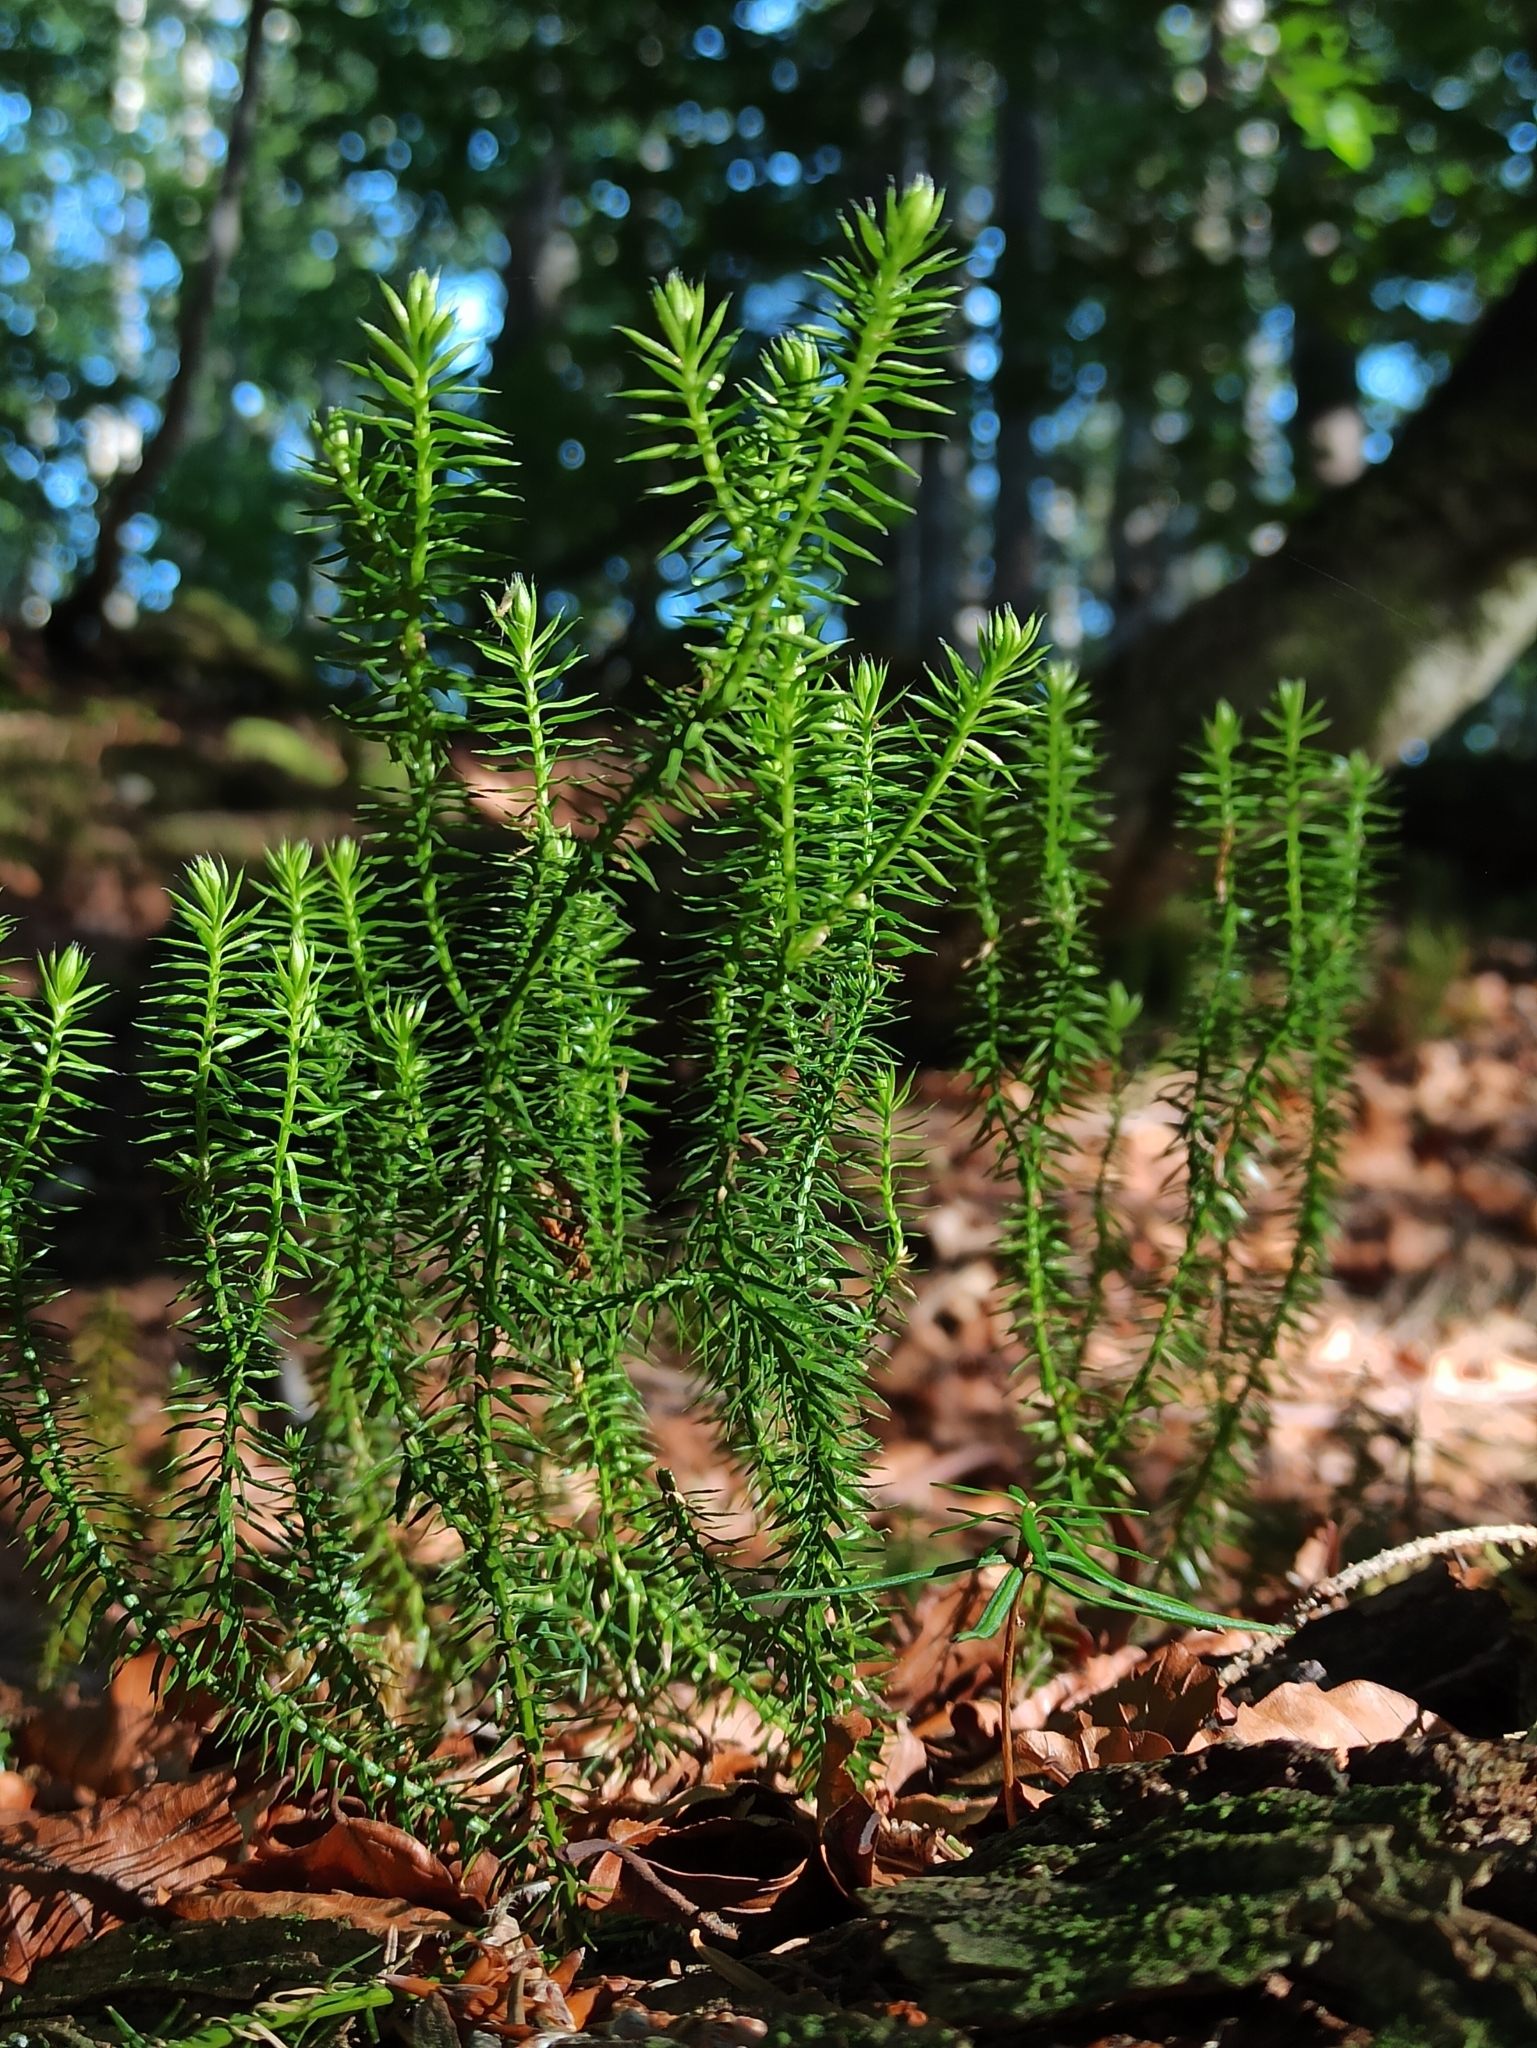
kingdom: Plantae
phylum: Tracheophyta
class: Lycopodiopsida
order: Lycopodiales
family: Lycopodiaceae
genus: Spinulum
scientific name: Spinulum annotinum
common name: Interrupted club-moss
